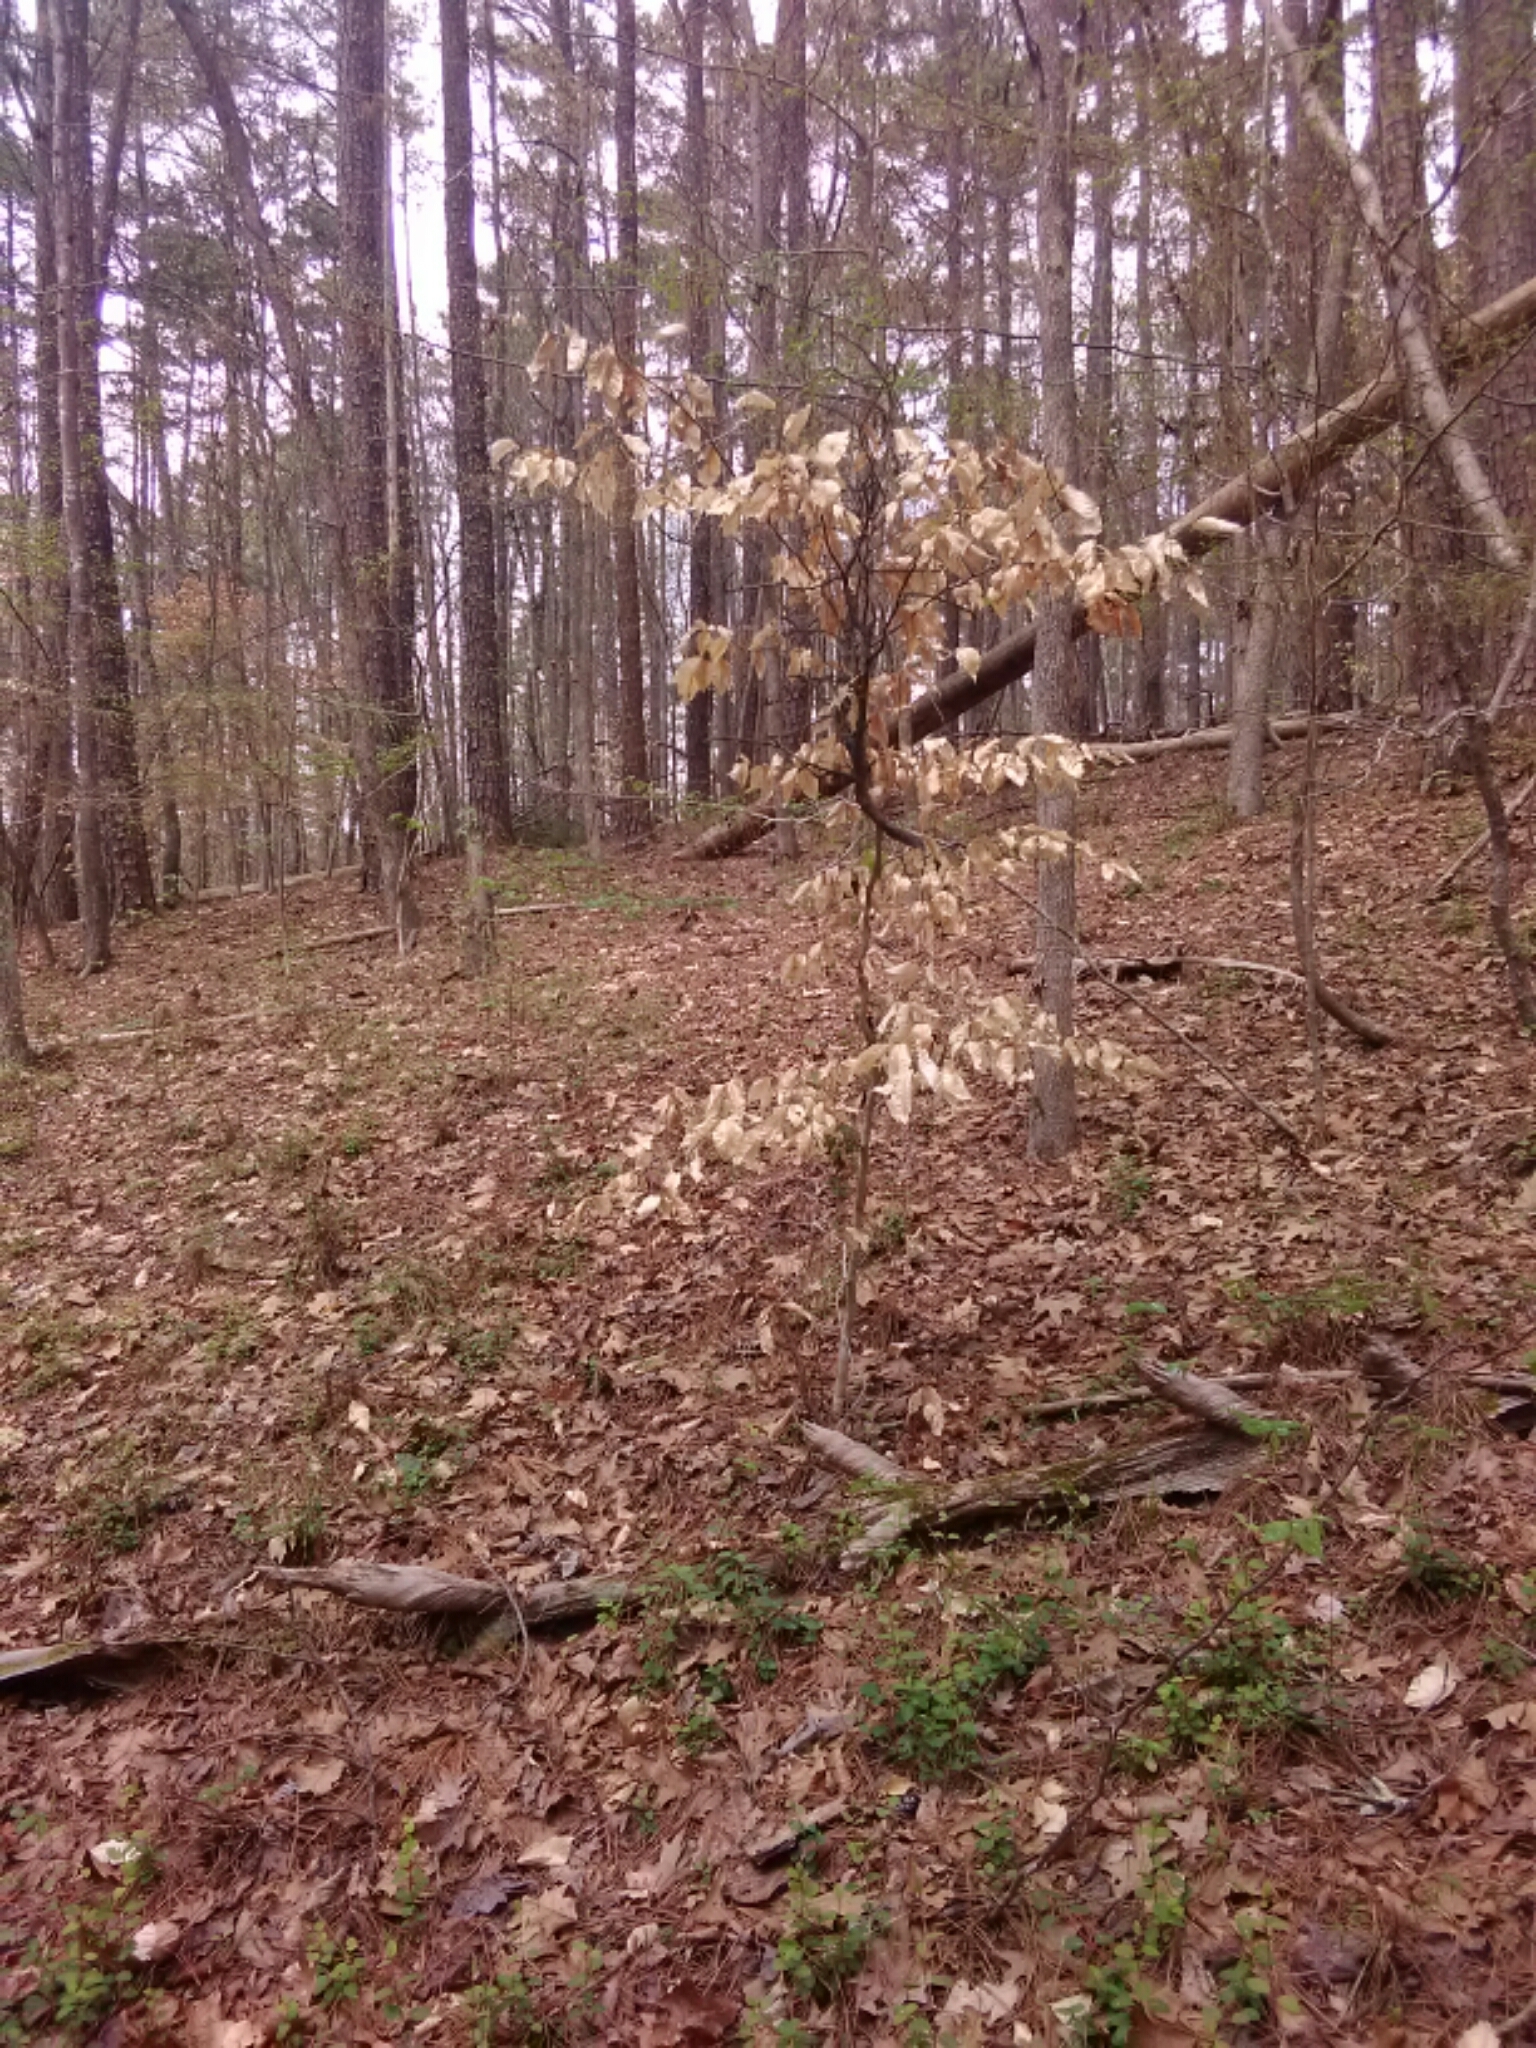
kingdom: Plantae
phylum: Tracheophyta
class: Magnoliopsida
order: Fagales
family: Fagaceae
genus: Fagus
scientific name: Fagus grandifolia
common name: American beech
